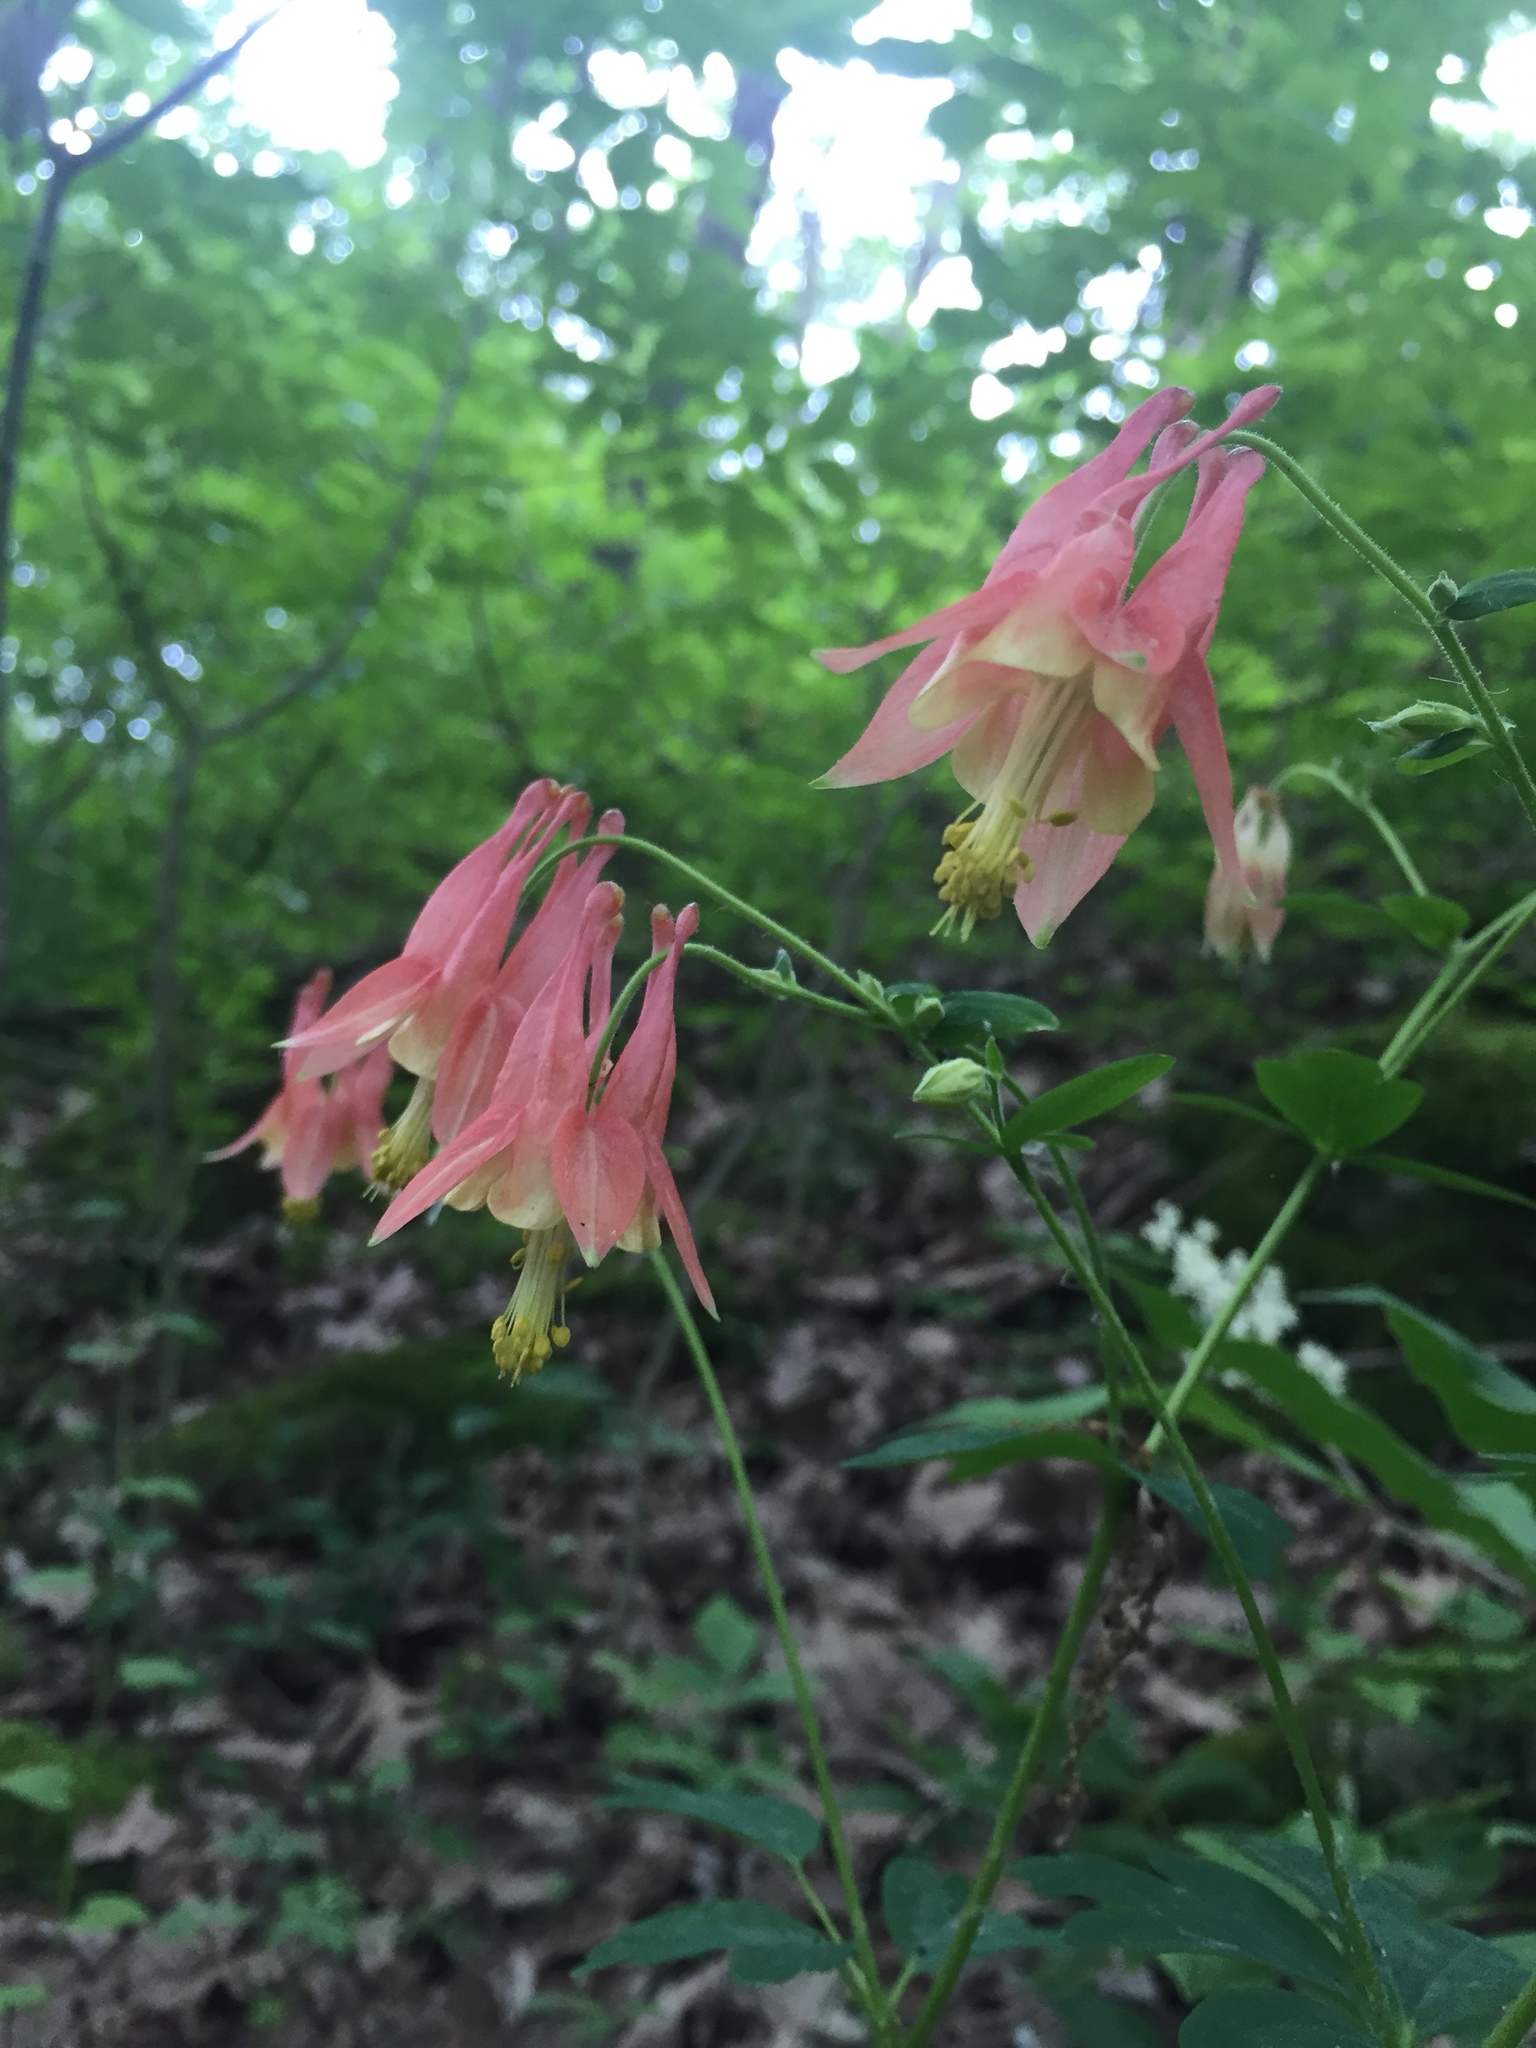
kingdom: Plantae
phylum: Tracheophyta
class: Magnoliopsida
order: Ranunculales
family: Ranunculaceae
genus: Aquilegia
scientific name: Aquilegia canadensis
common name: American columbine
